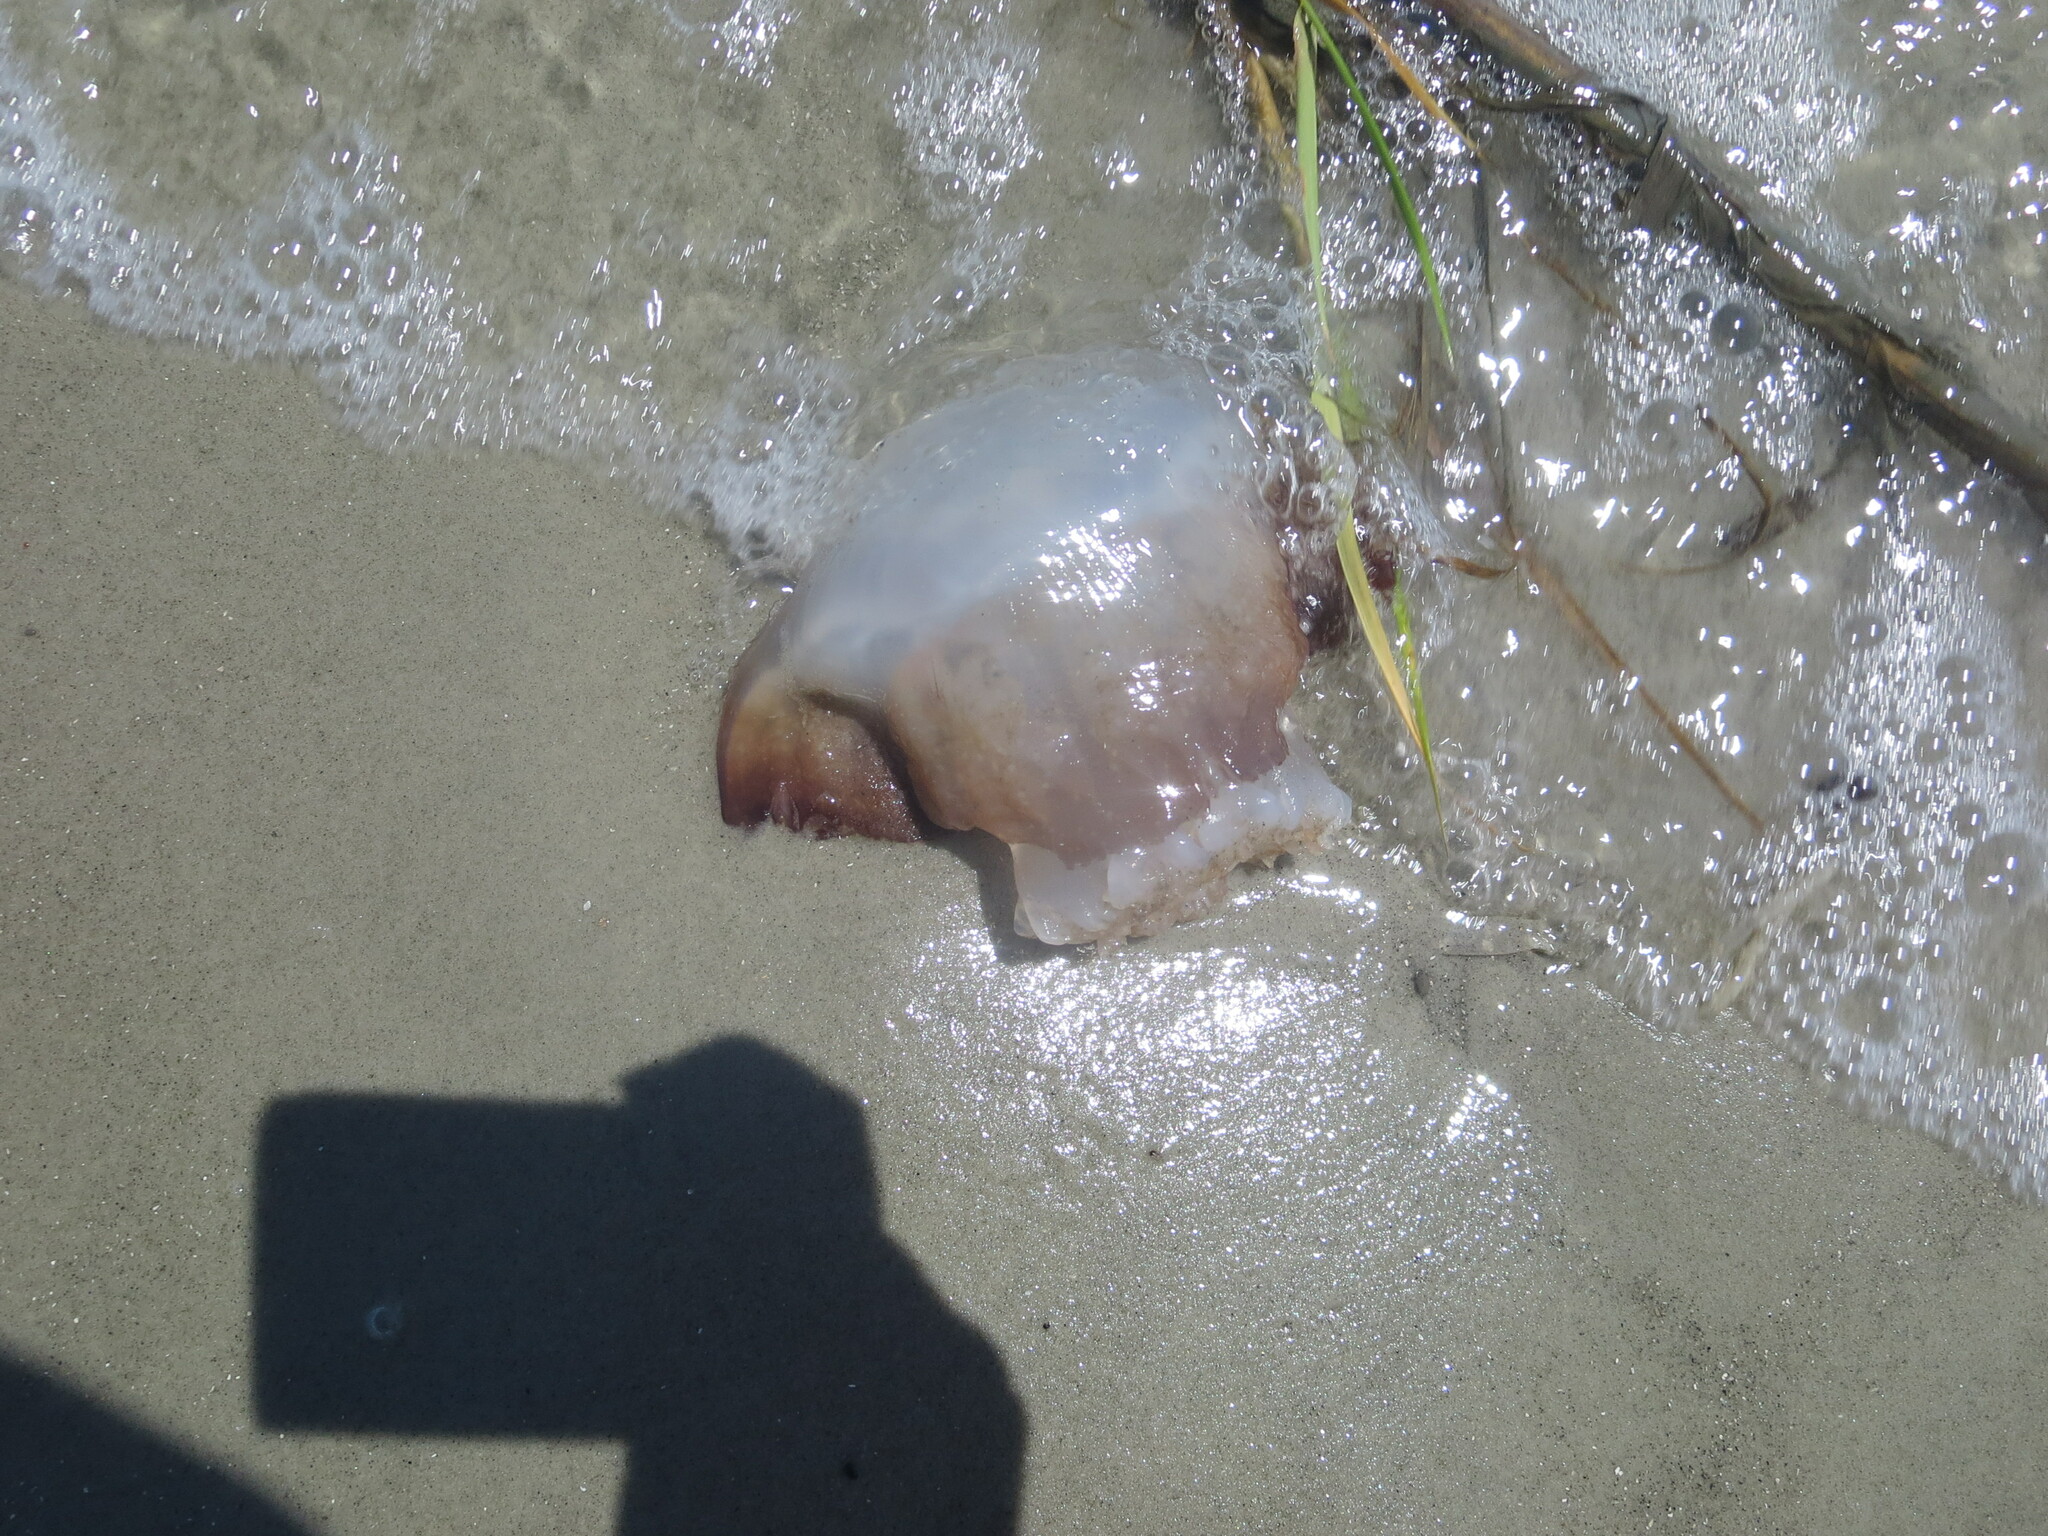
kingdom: Animalia
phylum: Cnidaria
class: Scyphozoa
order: Rhizostomeae
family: Stomolophidae
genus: Stomolophus
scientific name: Stomolophus meleagris
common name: Cabbagehead
